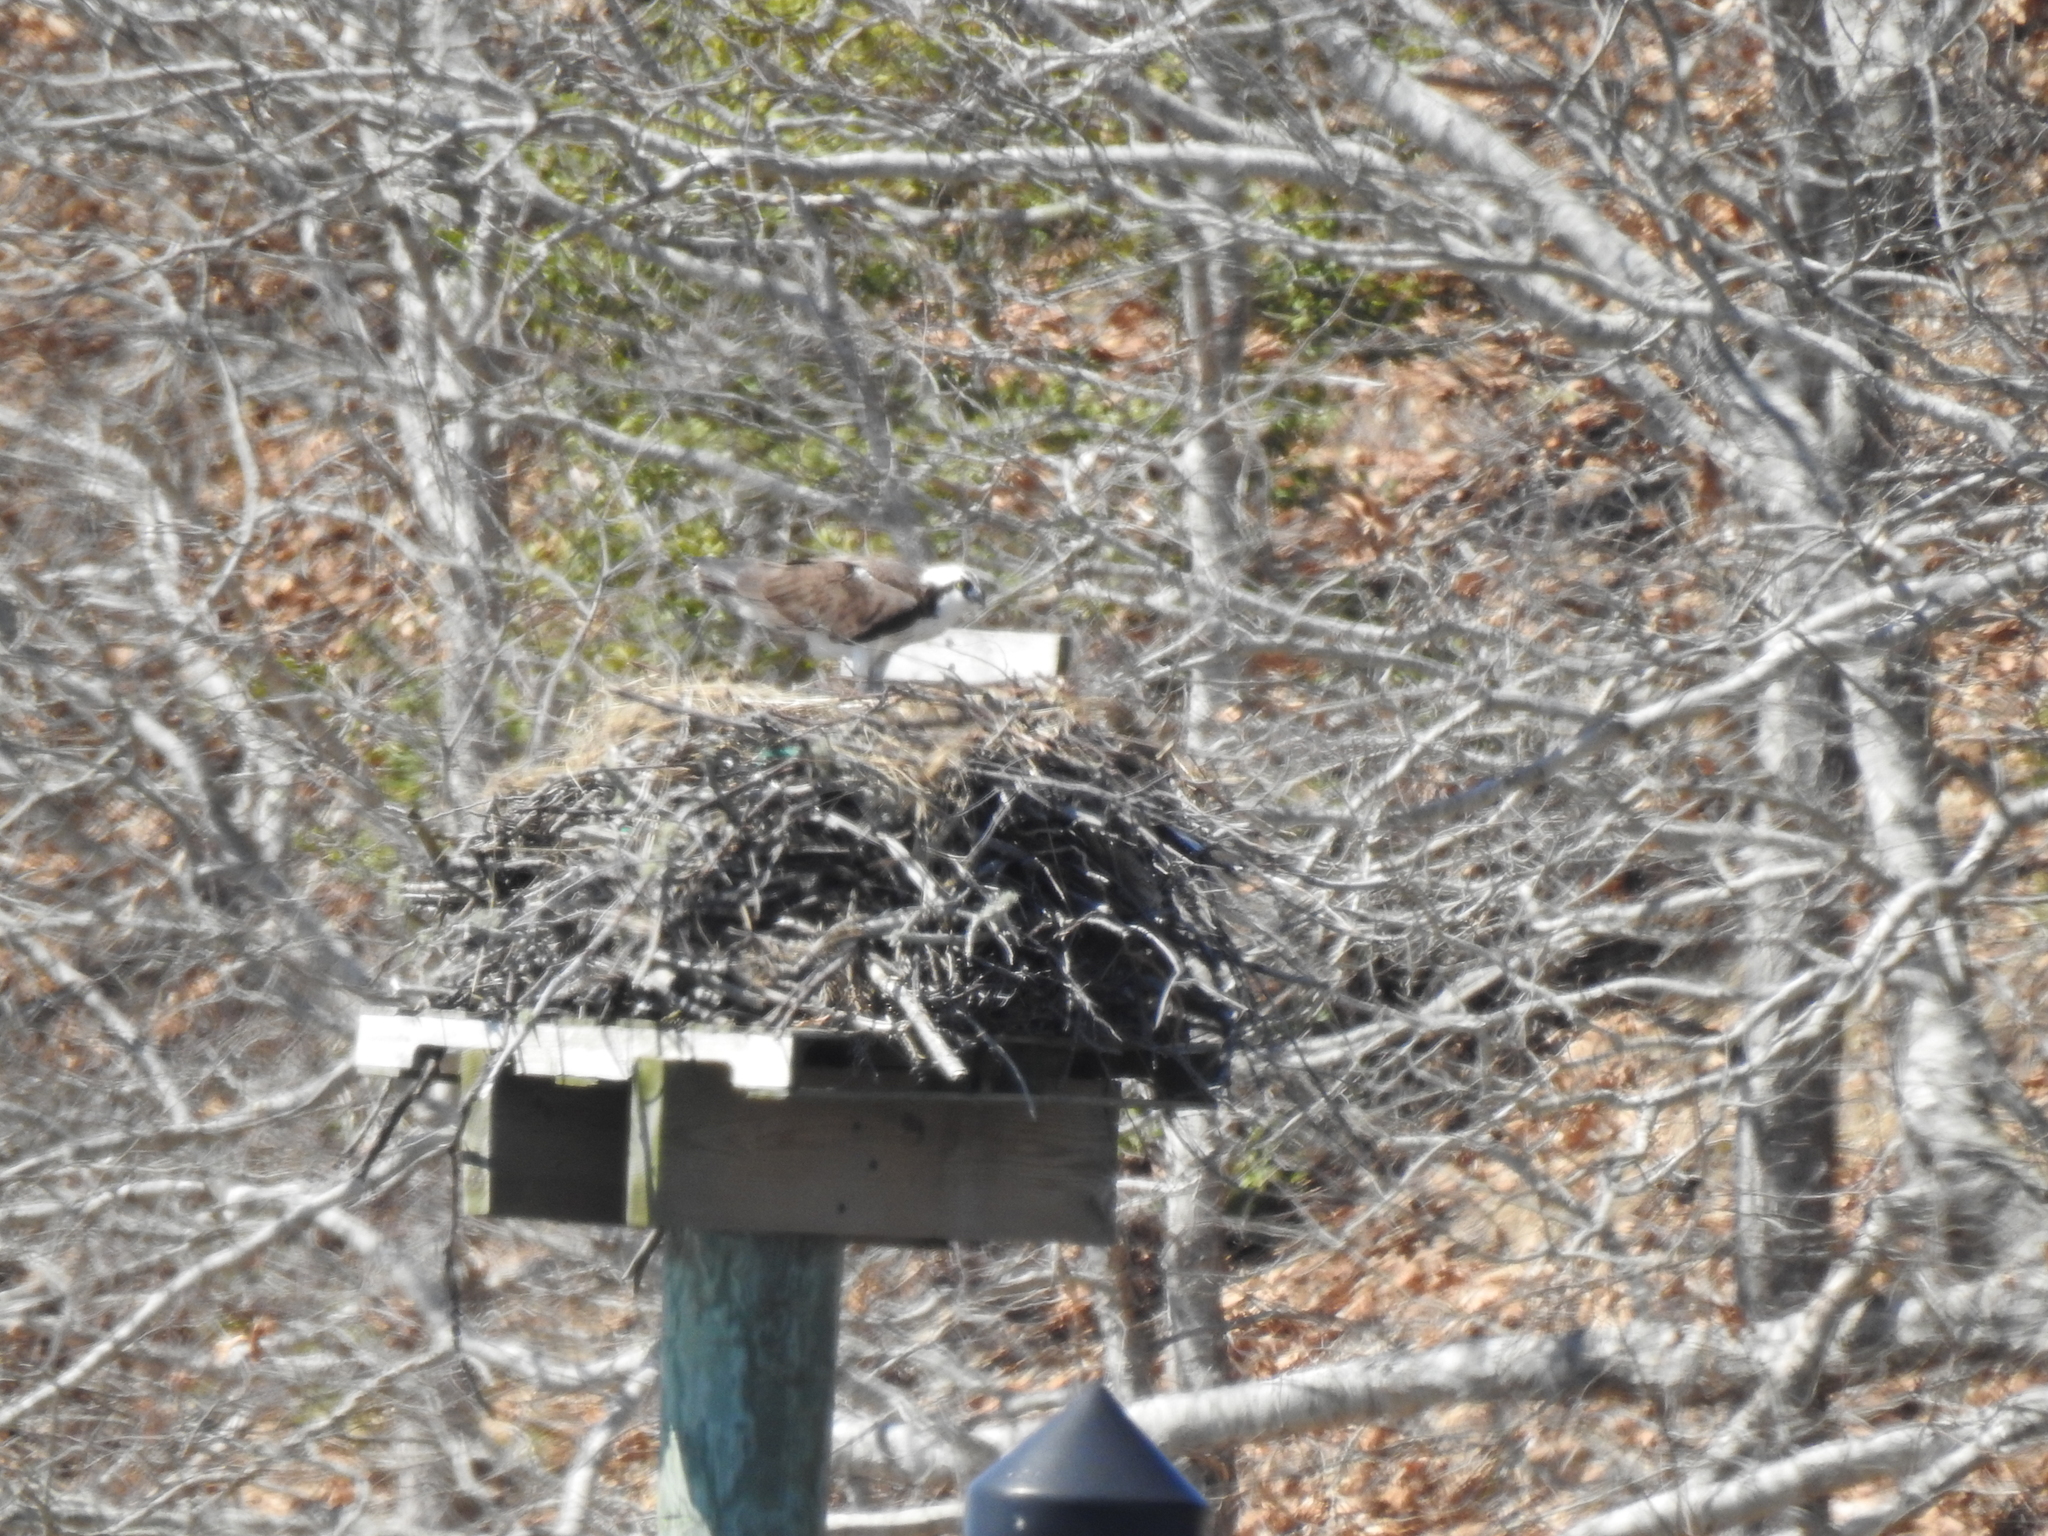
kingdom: Animalia
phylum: Chordata
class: Aves
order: Accipitriformes
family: Pandionidae
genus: Pandion
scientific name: Pandion haliaetus
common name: Osprey
